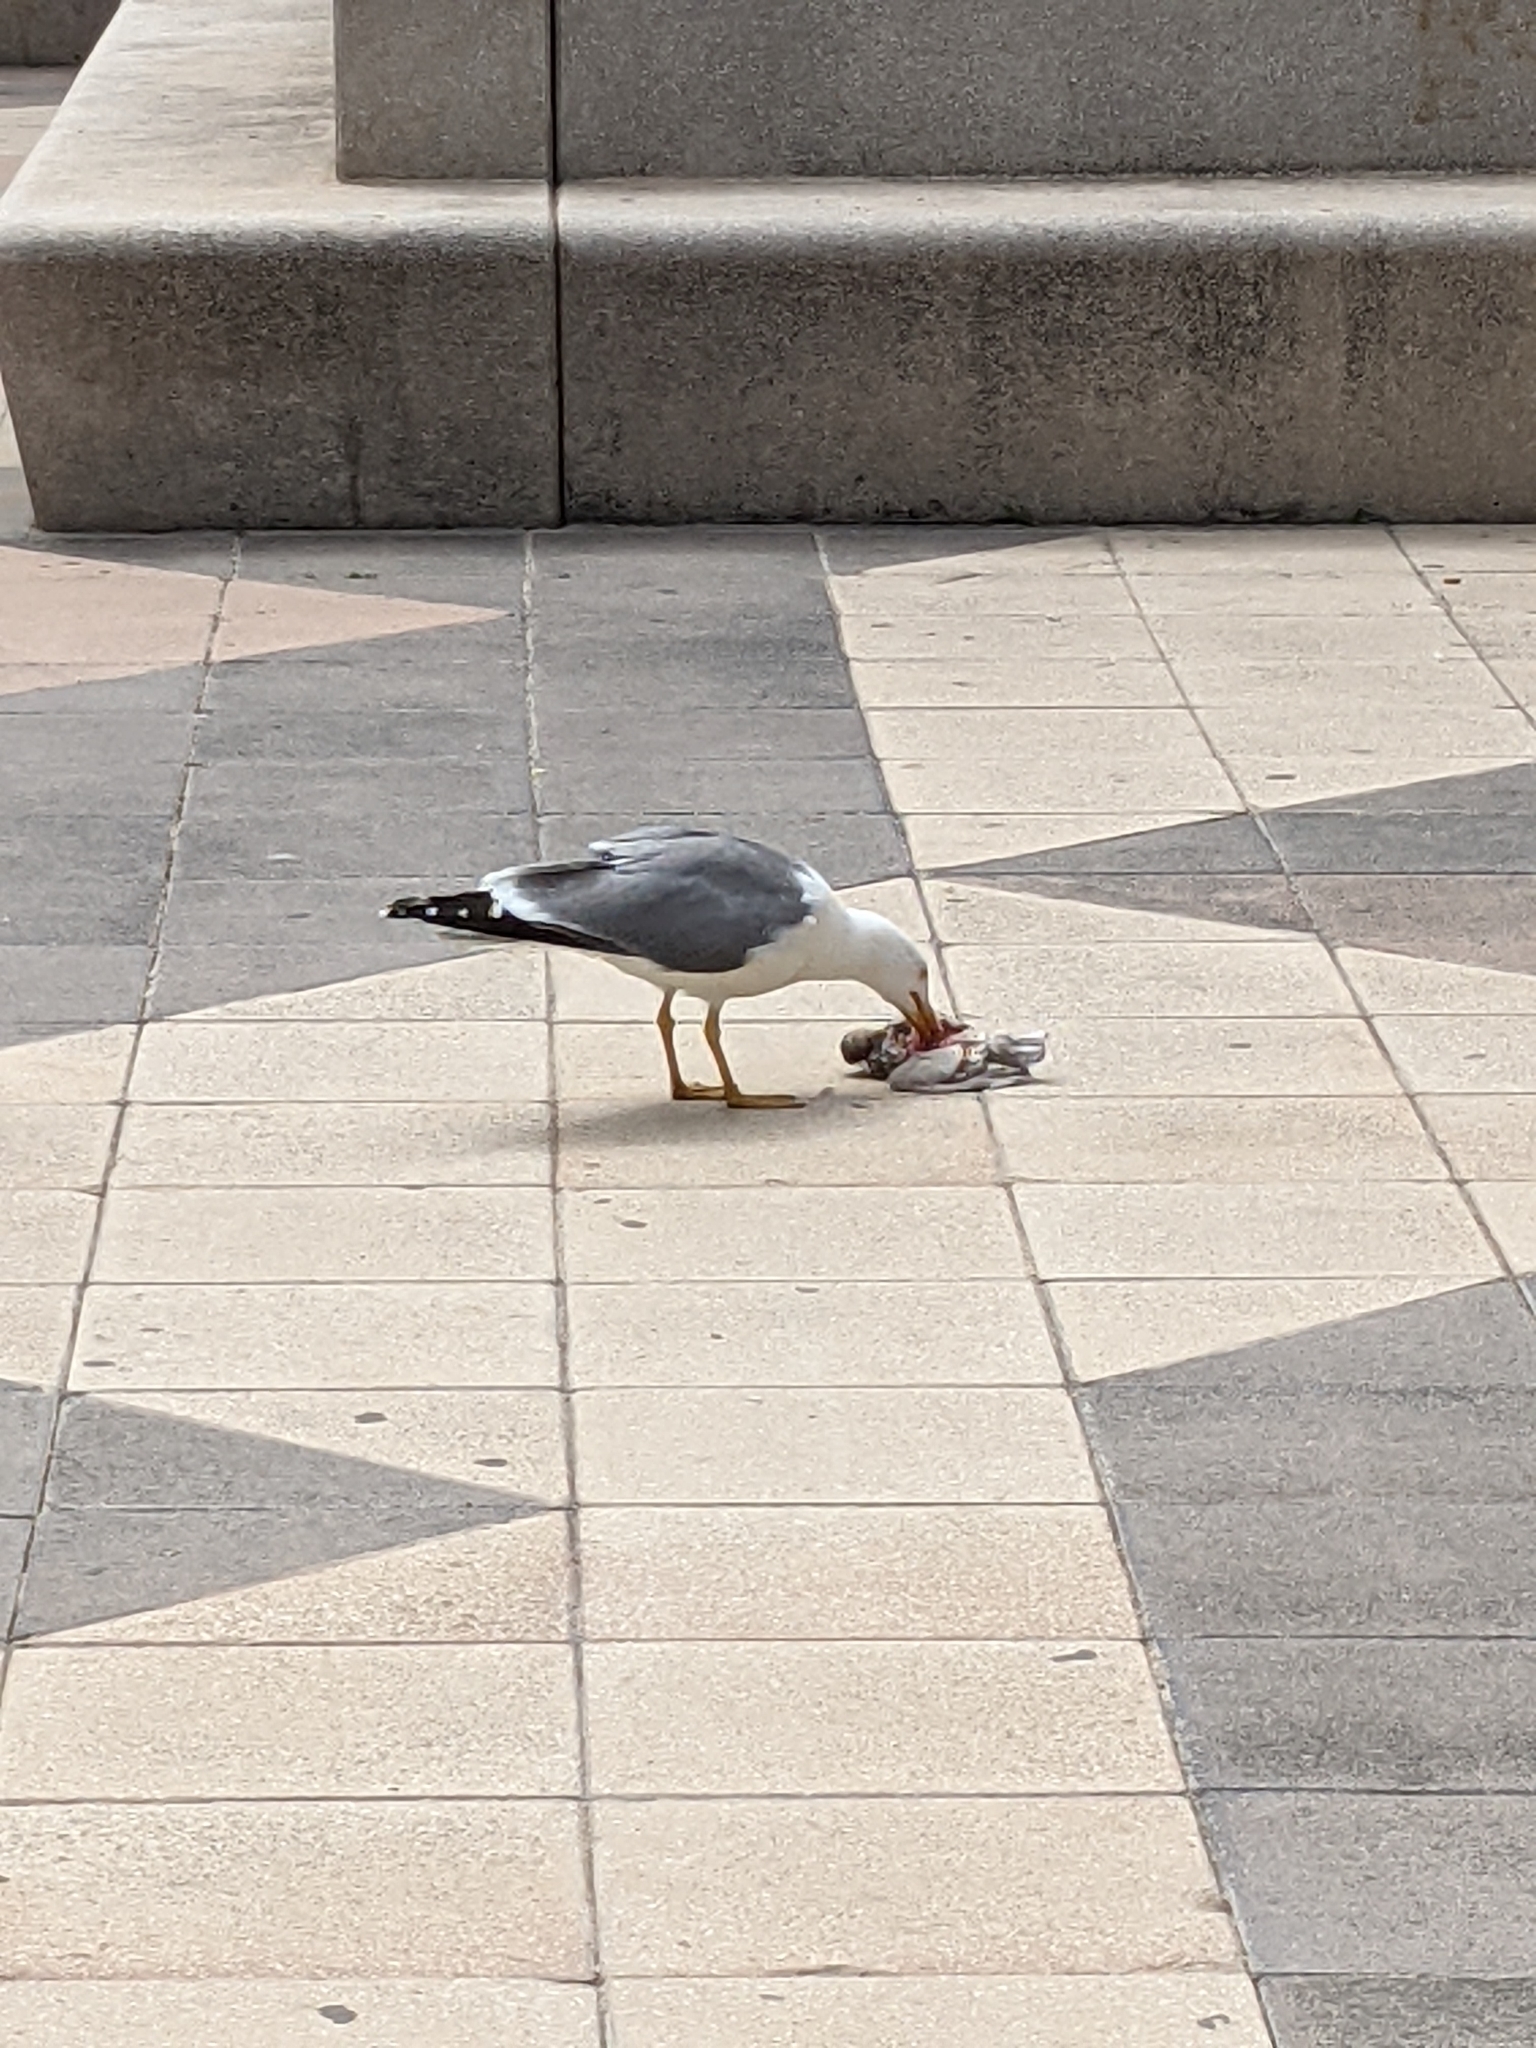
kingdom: Animalia
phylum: Chordata
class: Aves
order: Charadriiformes
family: Laridae
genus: Larus
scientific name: Larus michahellis
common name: Yellow-legged gull
